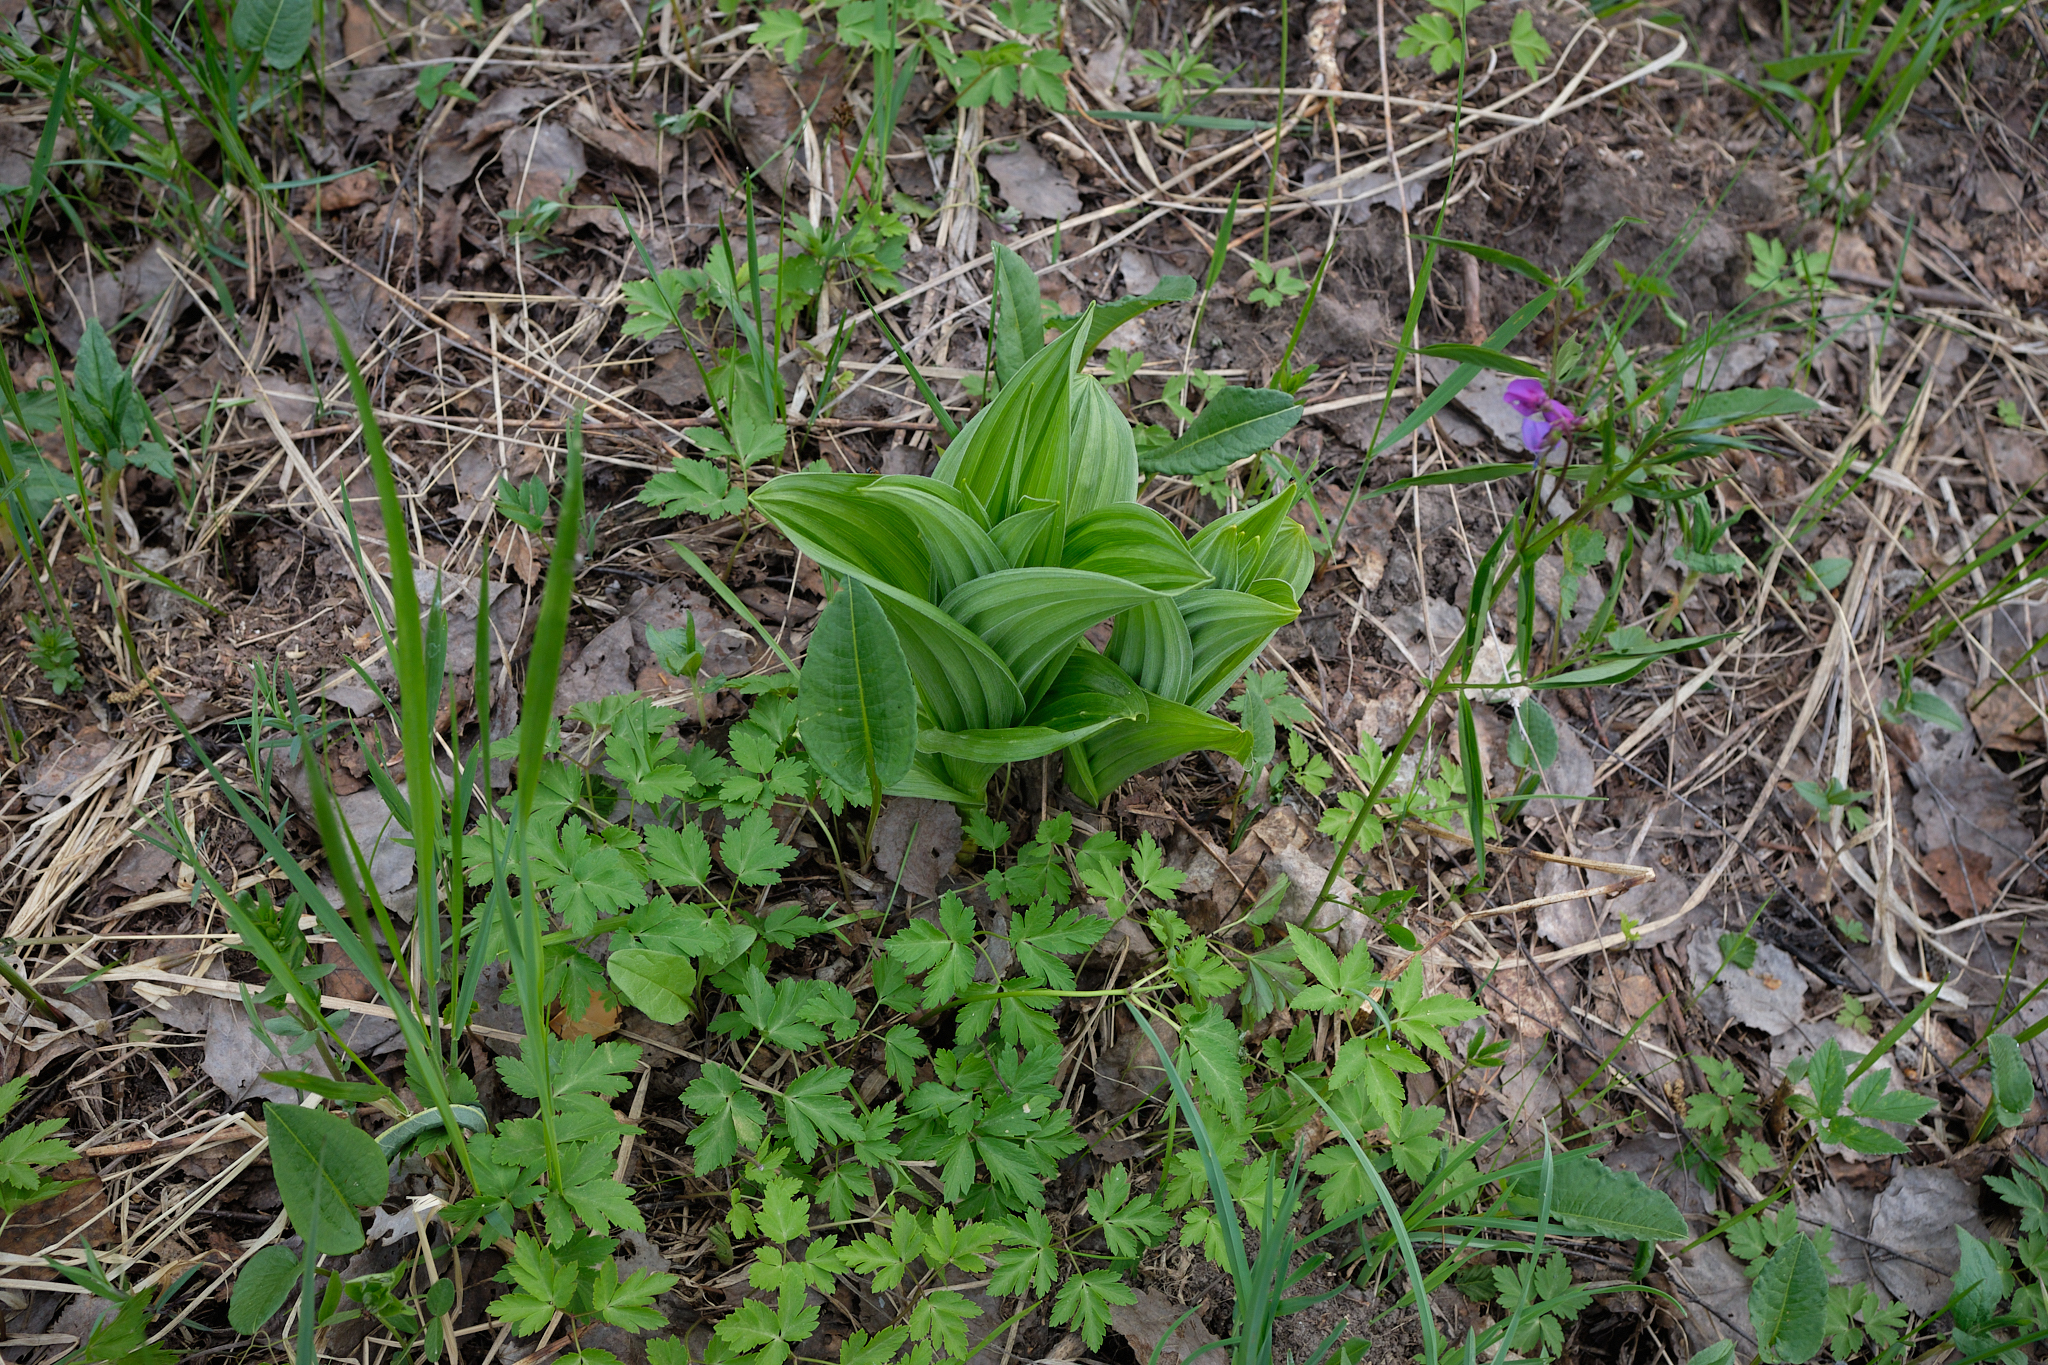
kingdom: Plantae
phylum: Tracheophyta
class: Liliopsida
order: Liliales
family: Melanthiaceae
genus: Veratrum
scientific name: Veratrum lobelianum
